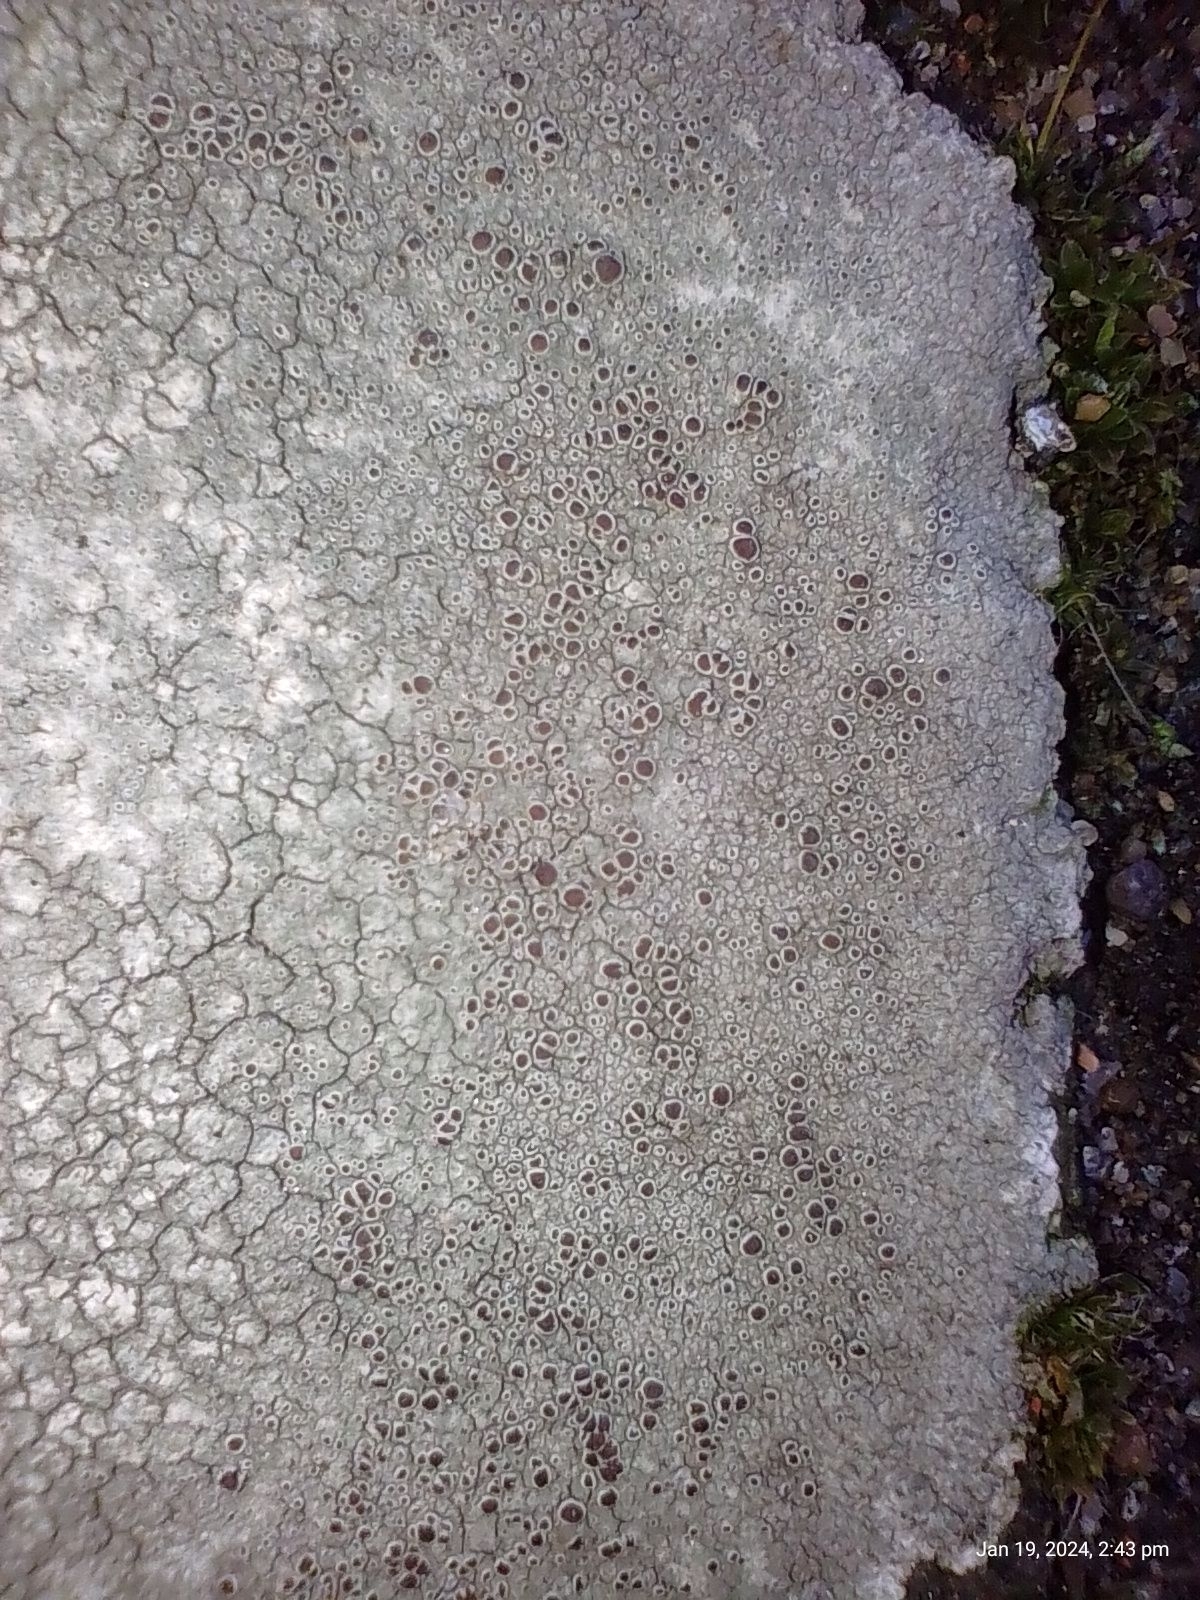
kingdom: Fungi
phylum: Ascomycota
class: Lecanoromycetes
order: Lecanorales
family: Lecanoraceae
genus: Lecanora
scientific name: Lecanora campestris
